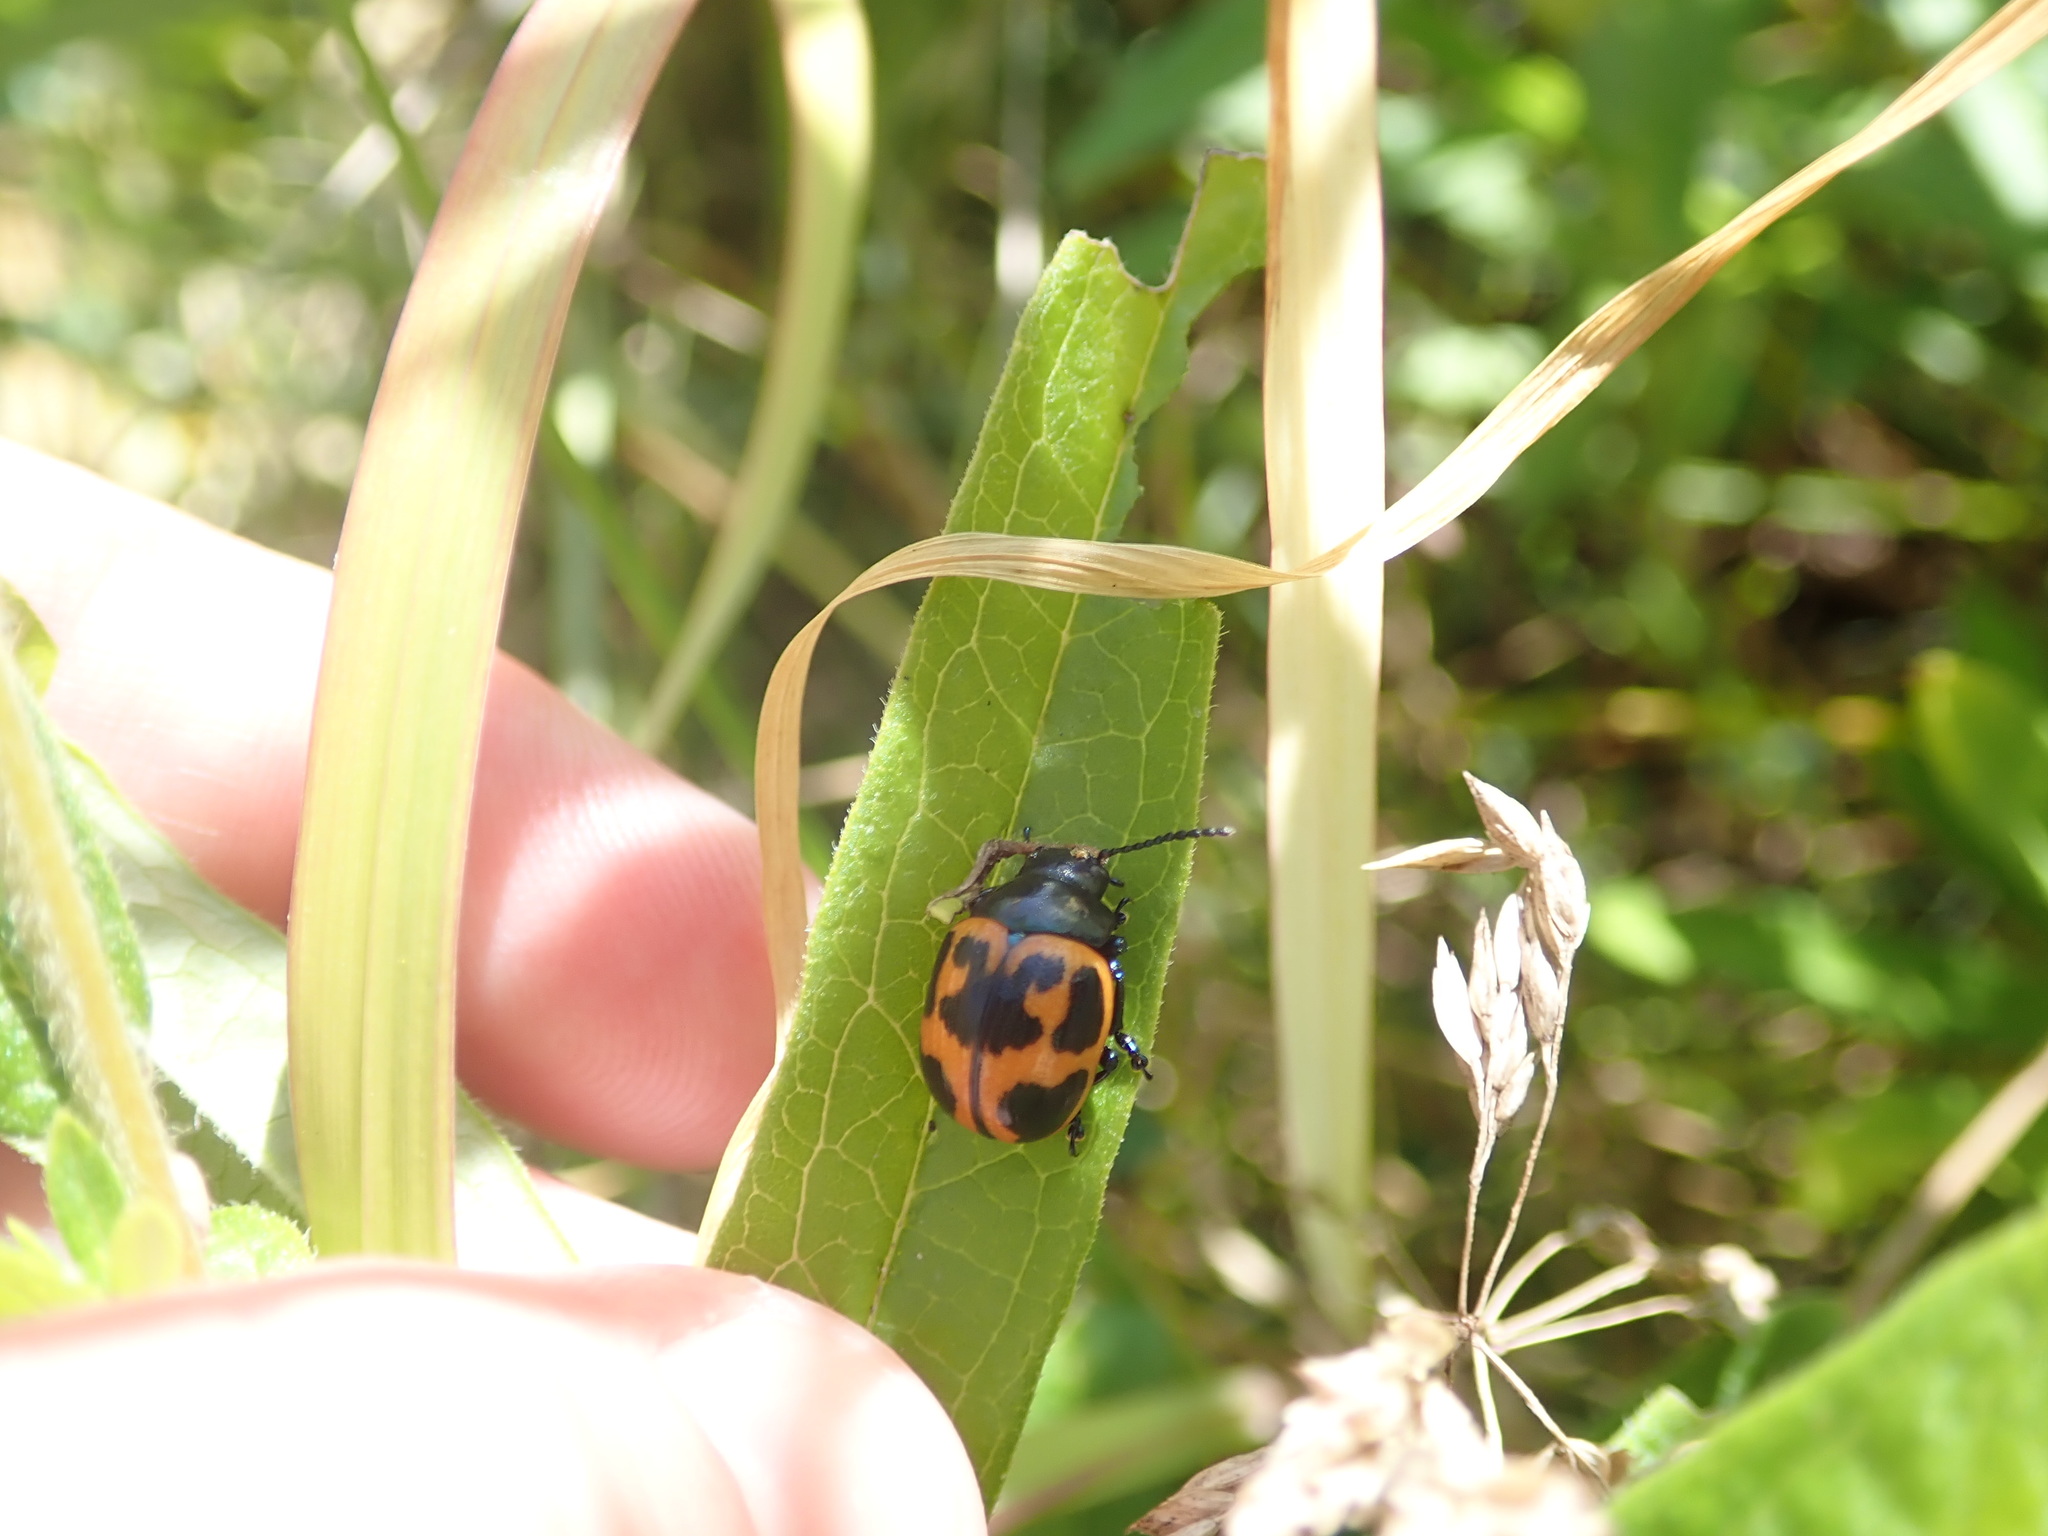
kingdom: Animalia
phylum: Arthropoda
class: Insecta
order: Coleoptera
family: Chrysomelidae
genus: Labidomera
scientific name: Labidomera clivicollis
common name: Swamp milkweed leaf beetle
